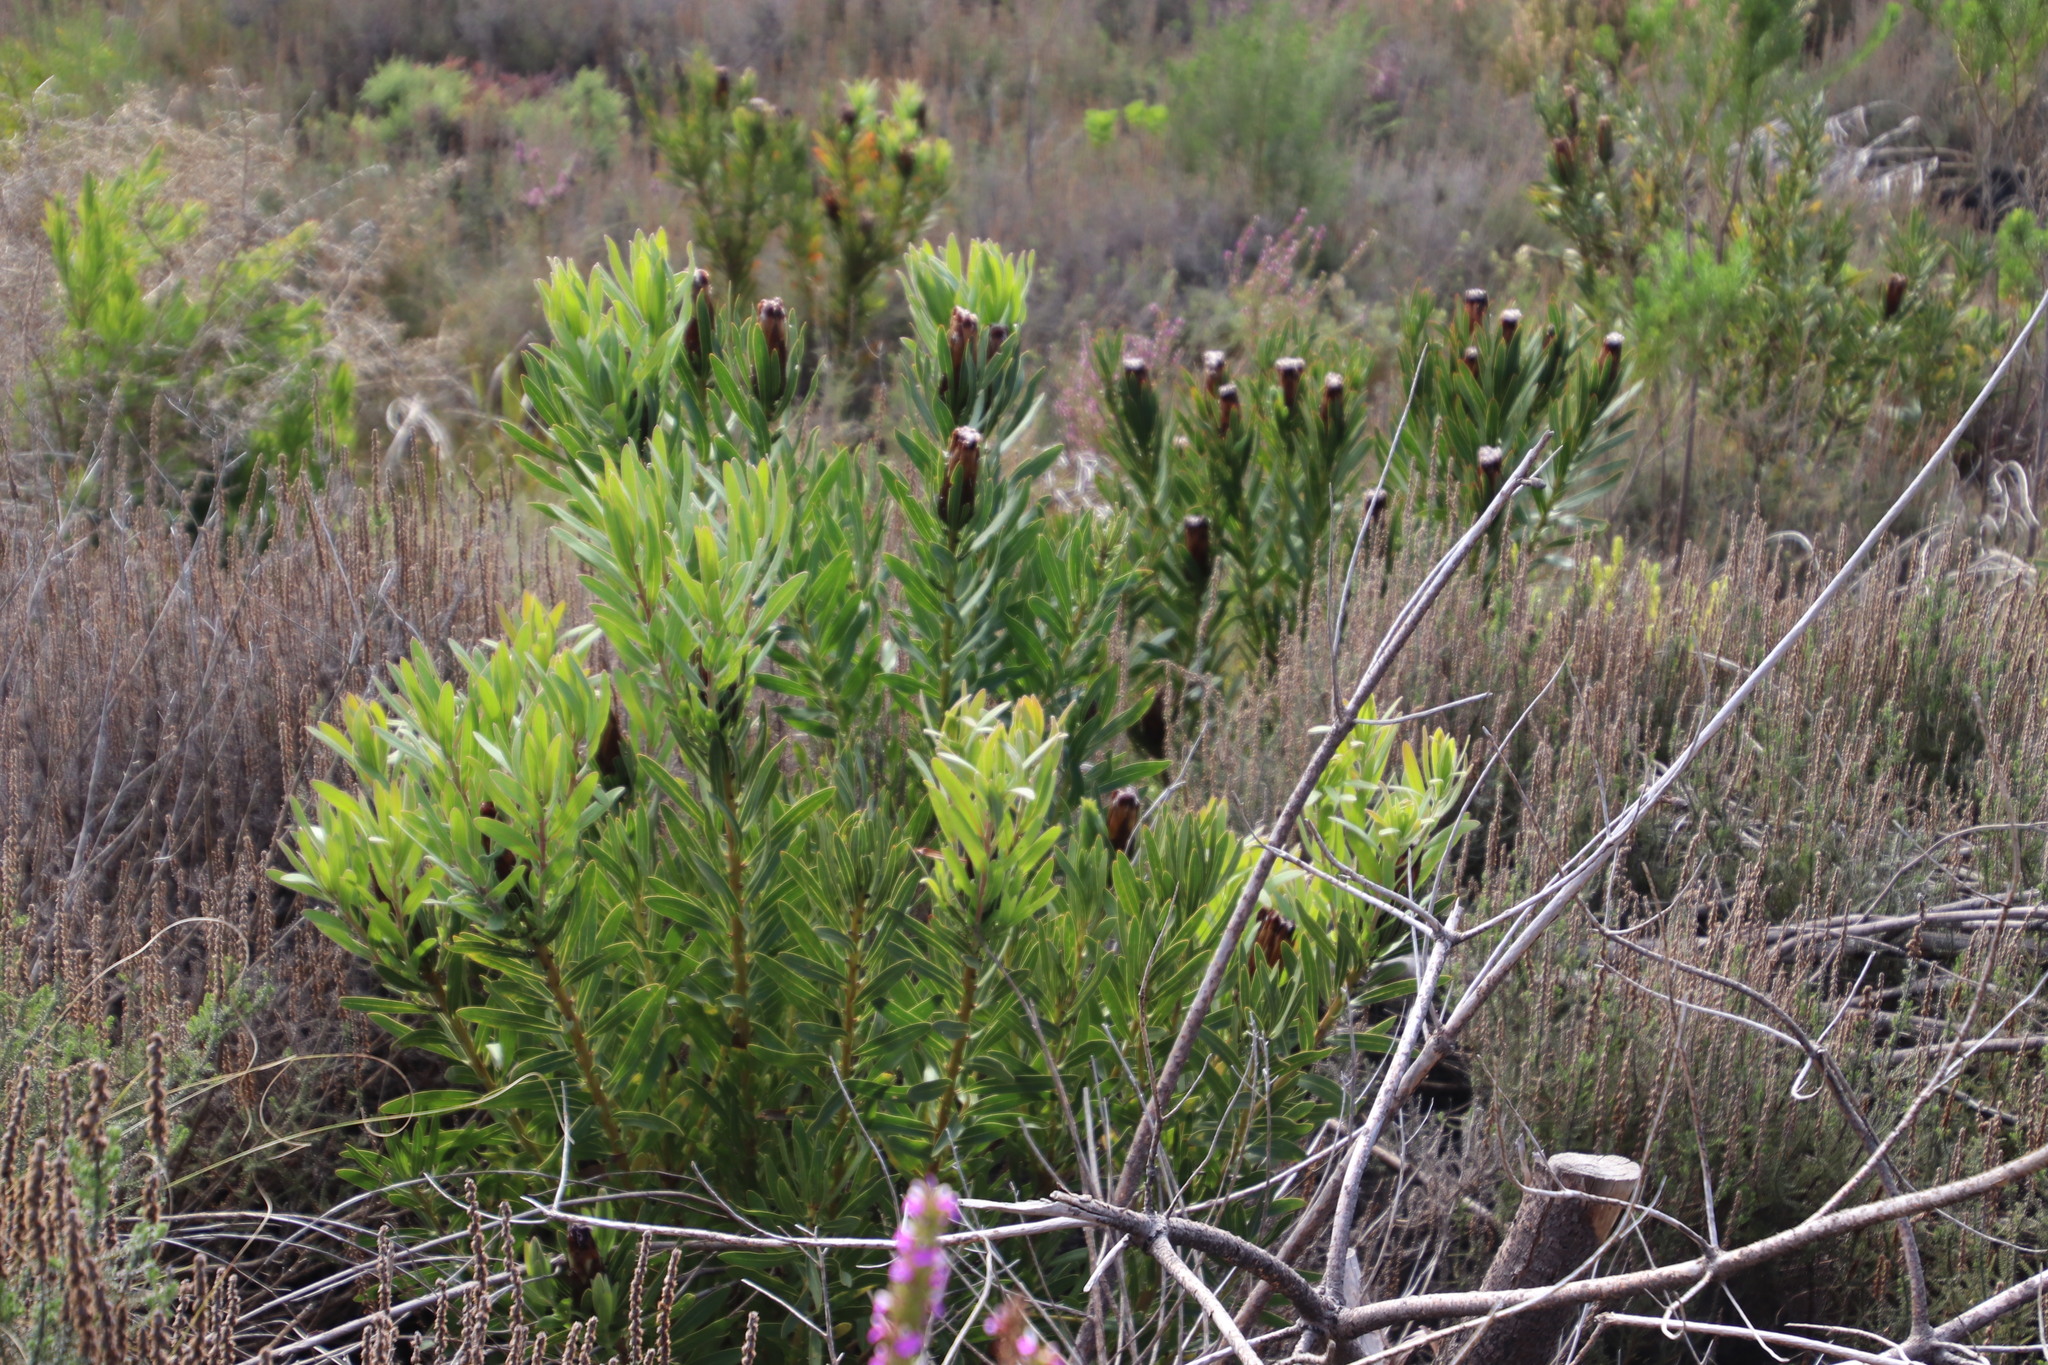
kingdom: Plantae
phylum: Tracheophyta
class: Magnoliopsida
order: Proteales
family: Proteaceae
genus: Protea
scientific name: Protea lepidocarpodendron
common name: Black-bearded protea
